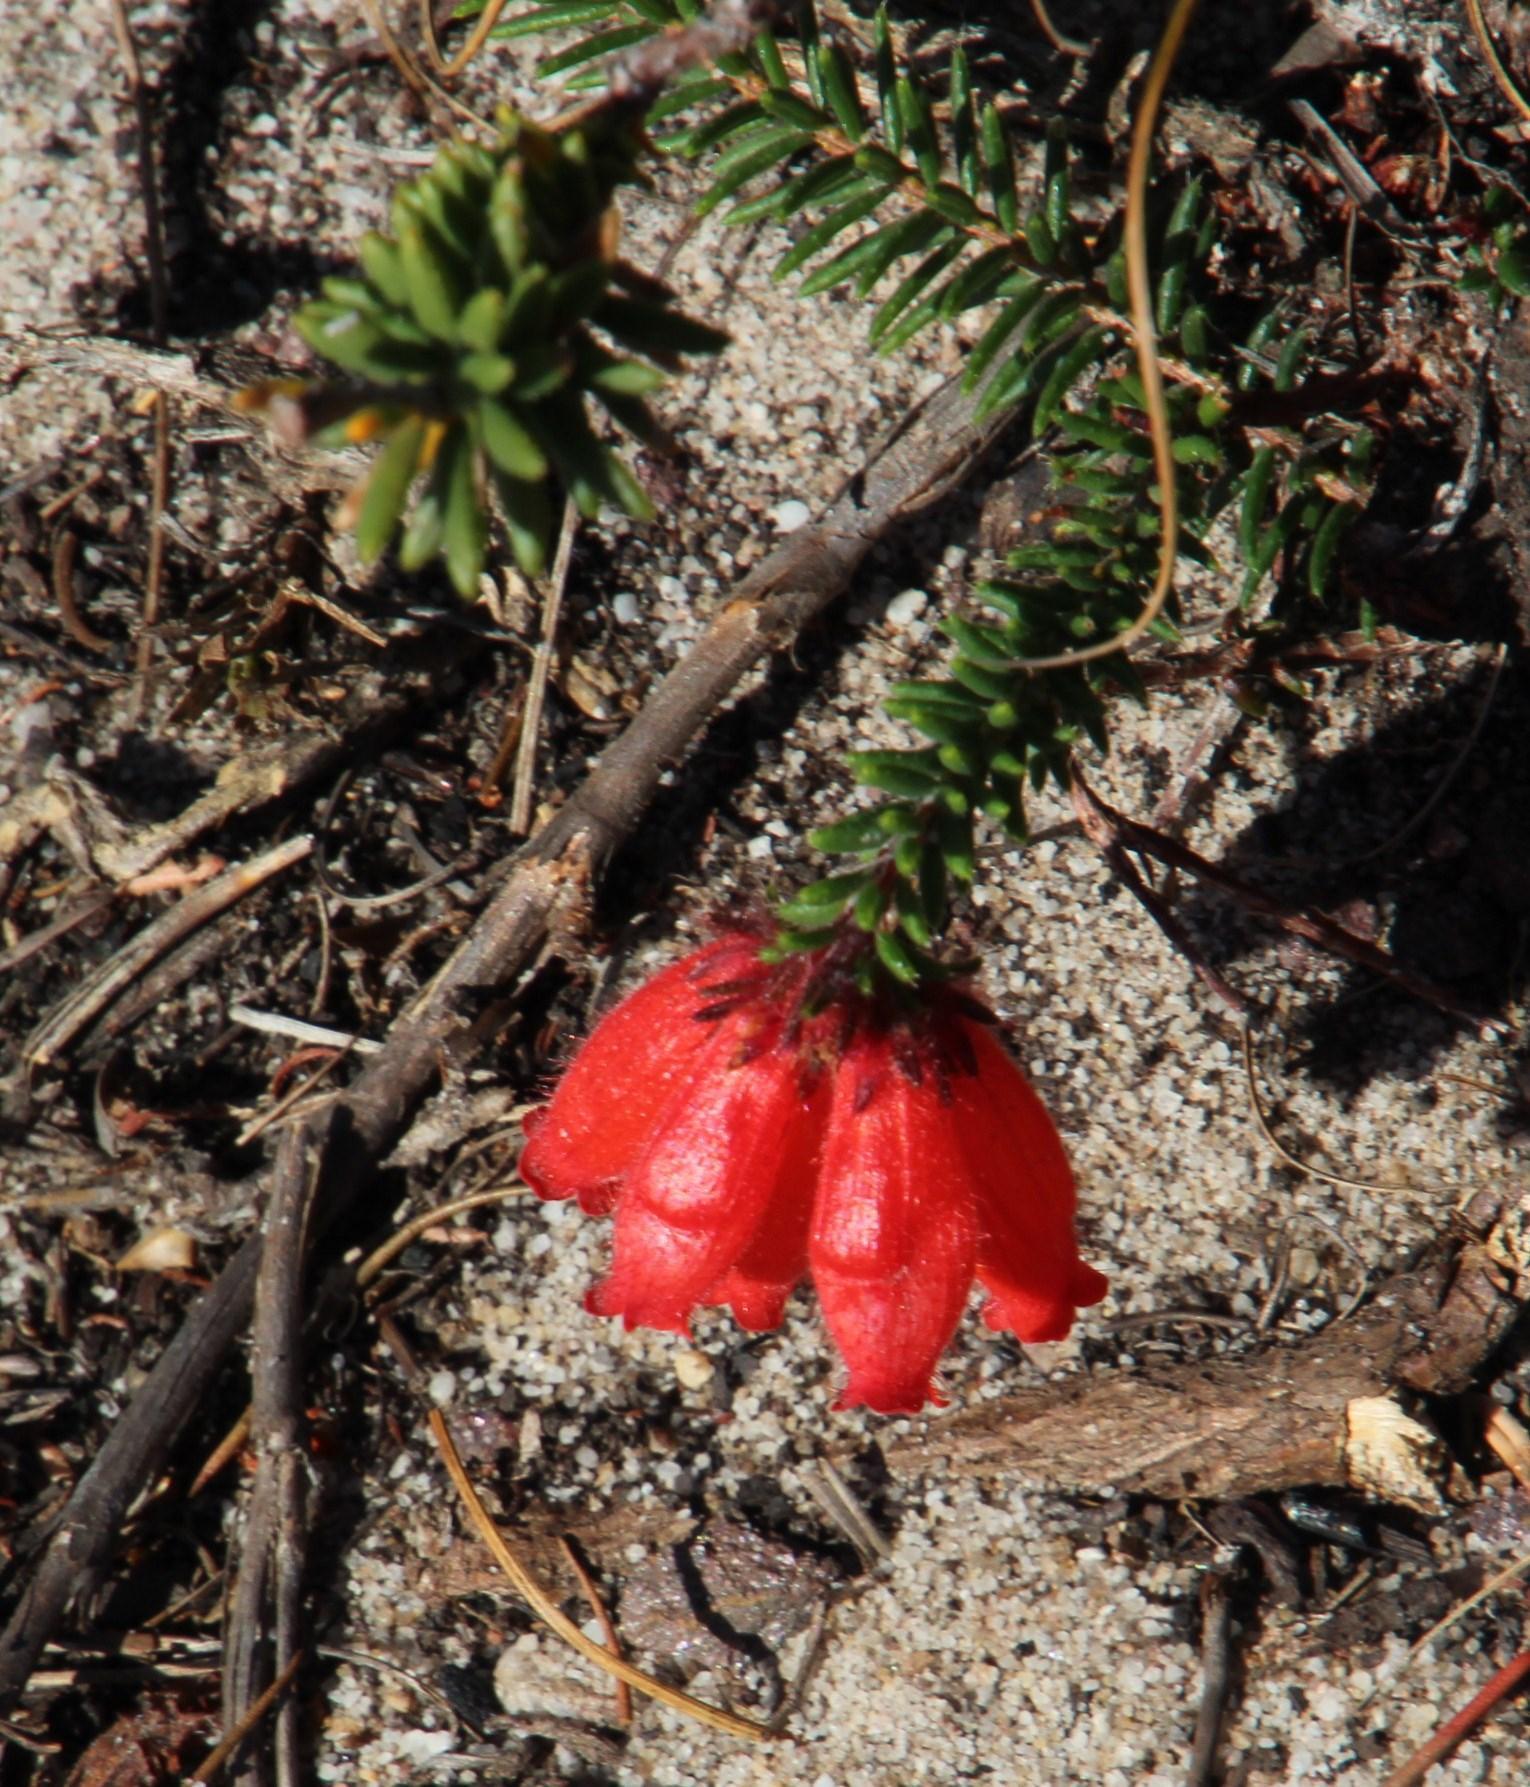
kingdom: Plantae
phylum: Tracheophyta
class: Magnoliopsida
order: Ericales
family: Ericaceae
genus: Erica
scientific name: Erica cerinthoides
